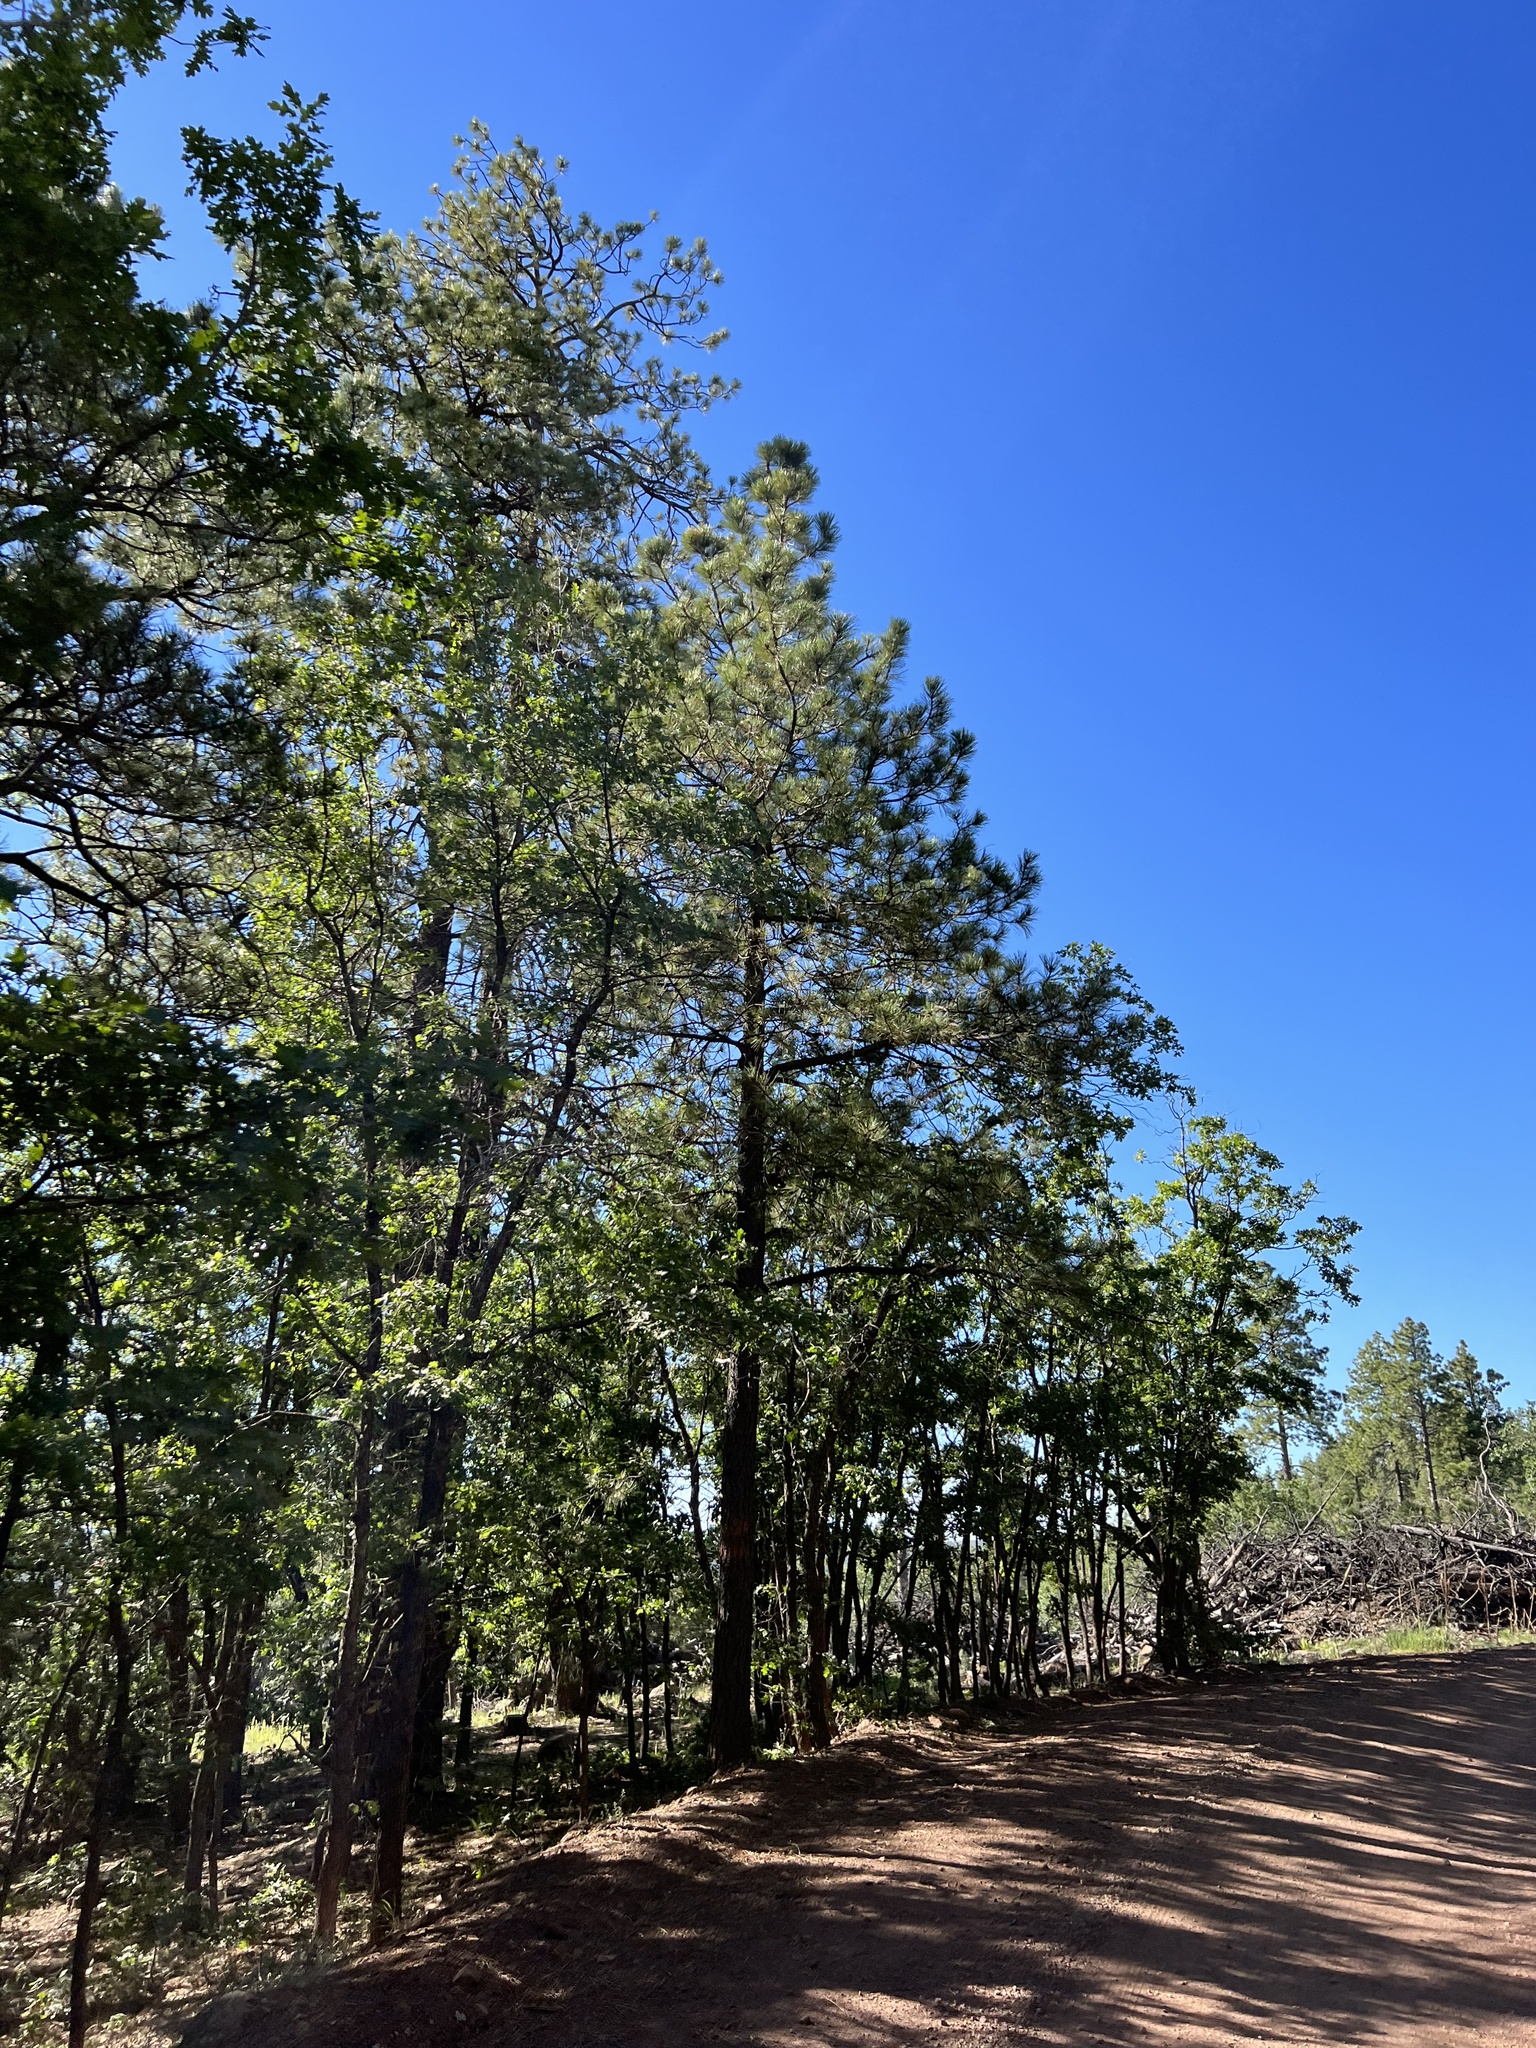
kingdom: Plantae
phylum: Tracheophyta
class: Pinopsida
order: Pinales
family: Pinaceae
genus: Pinus
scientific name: Pinus ponderosa
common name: Western yellow-pine
